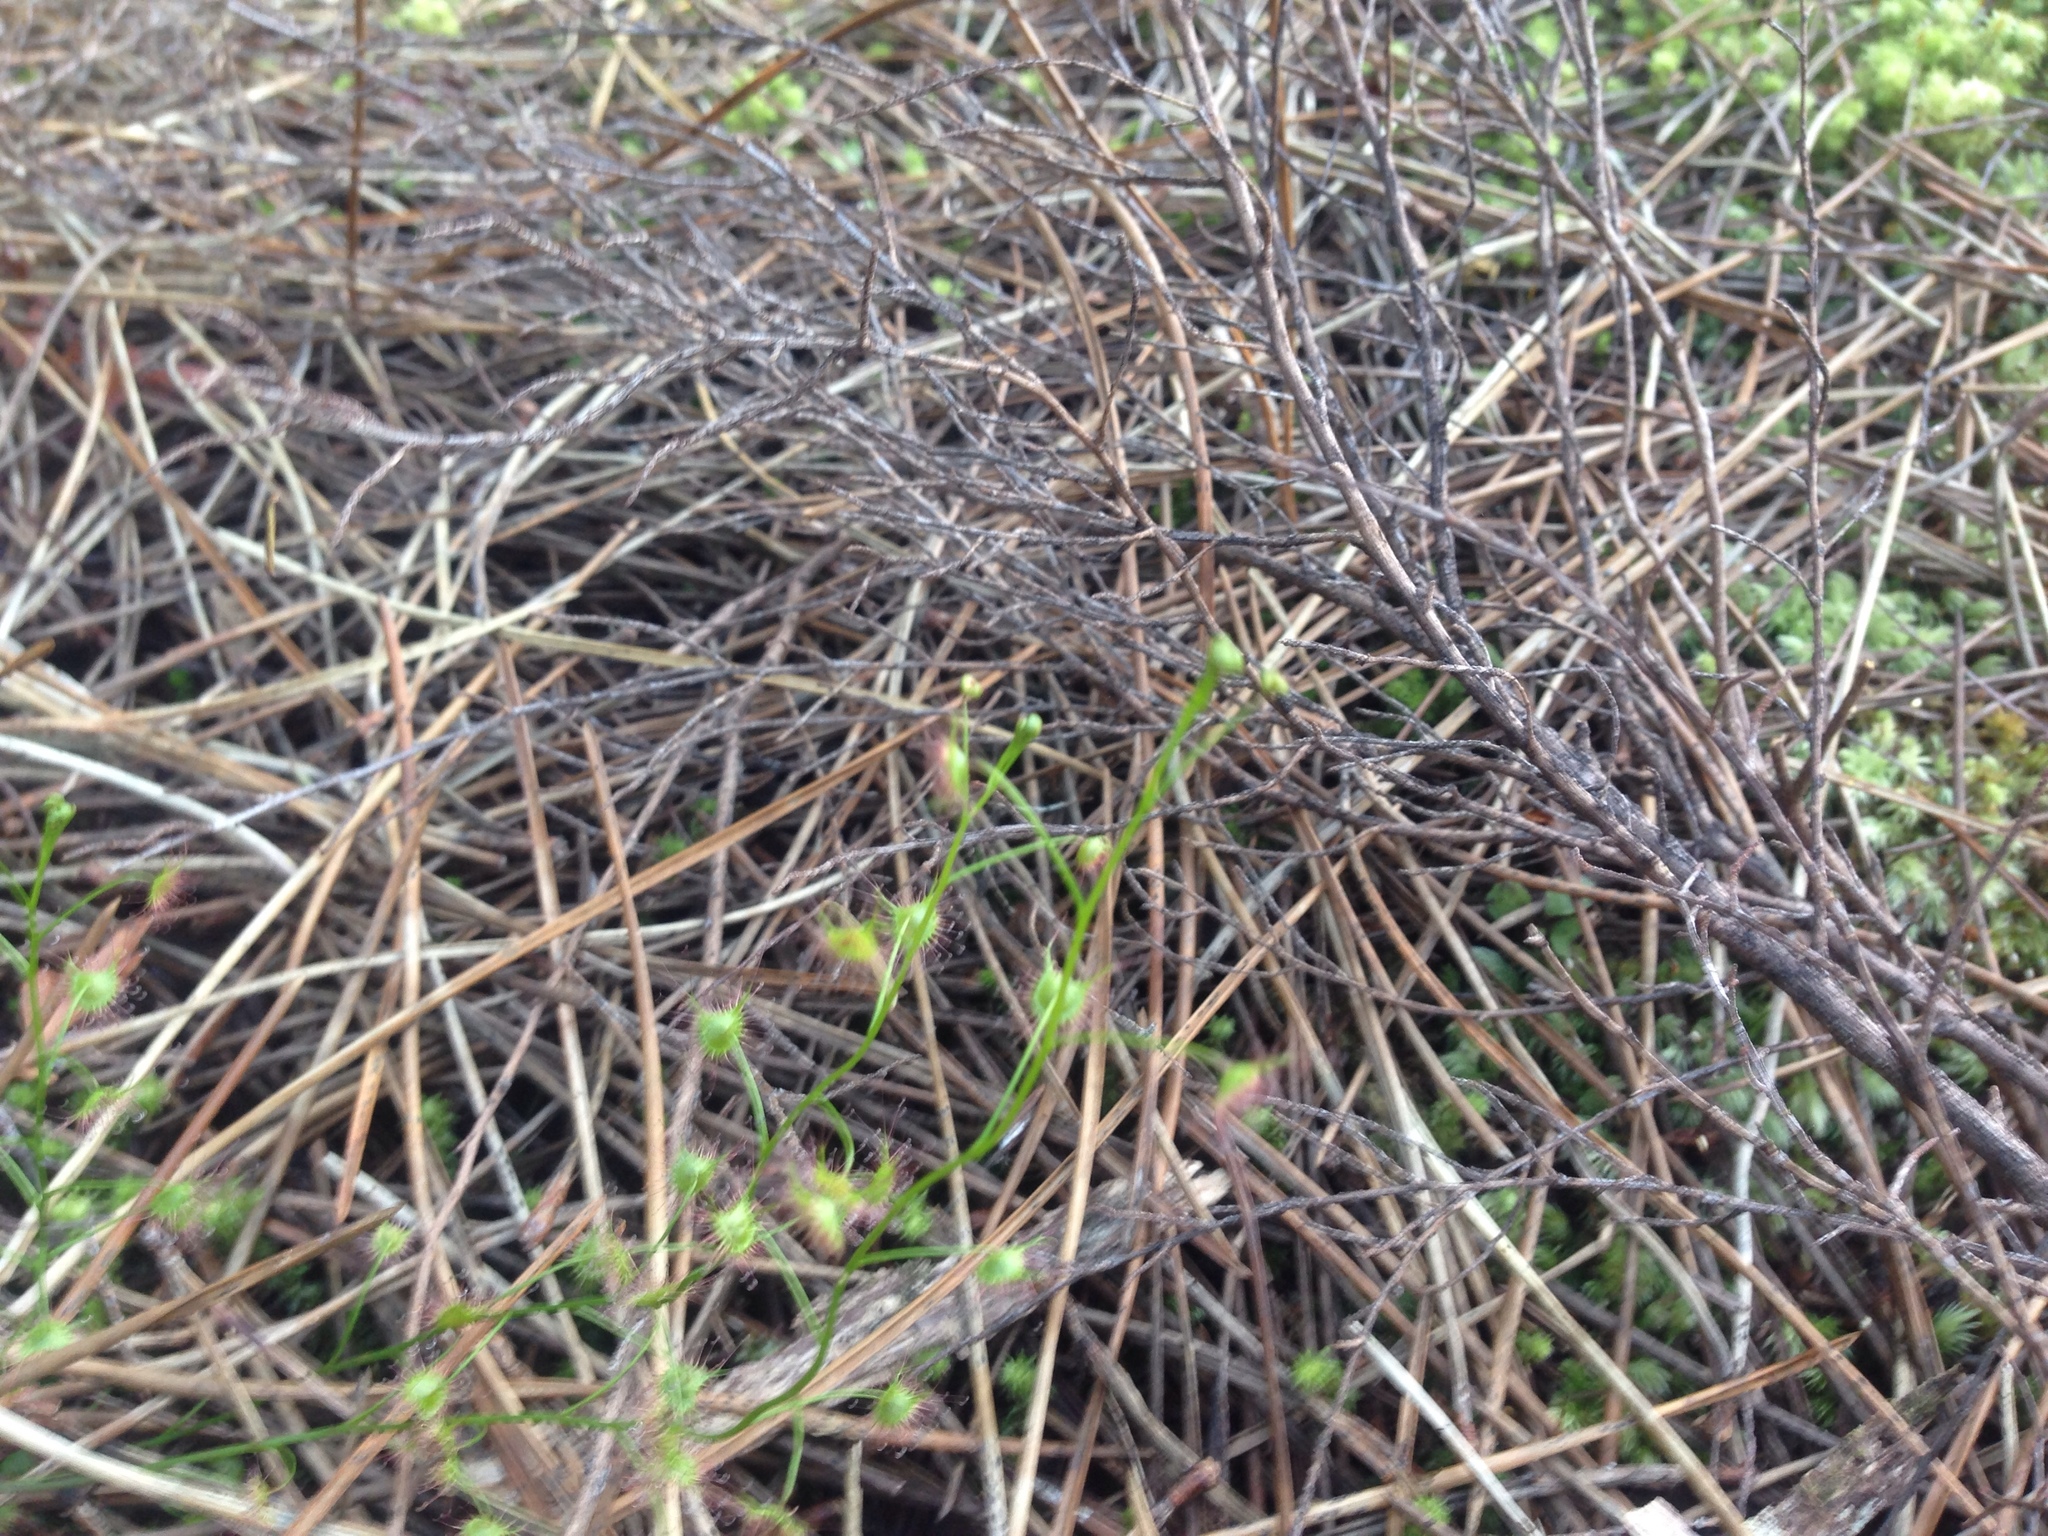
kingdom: Plantae
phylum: Tracheophyta
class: Magnoliopsida
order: Caryophyllales
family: Droseraceae
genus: Drosera
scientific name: Drosera peltata
